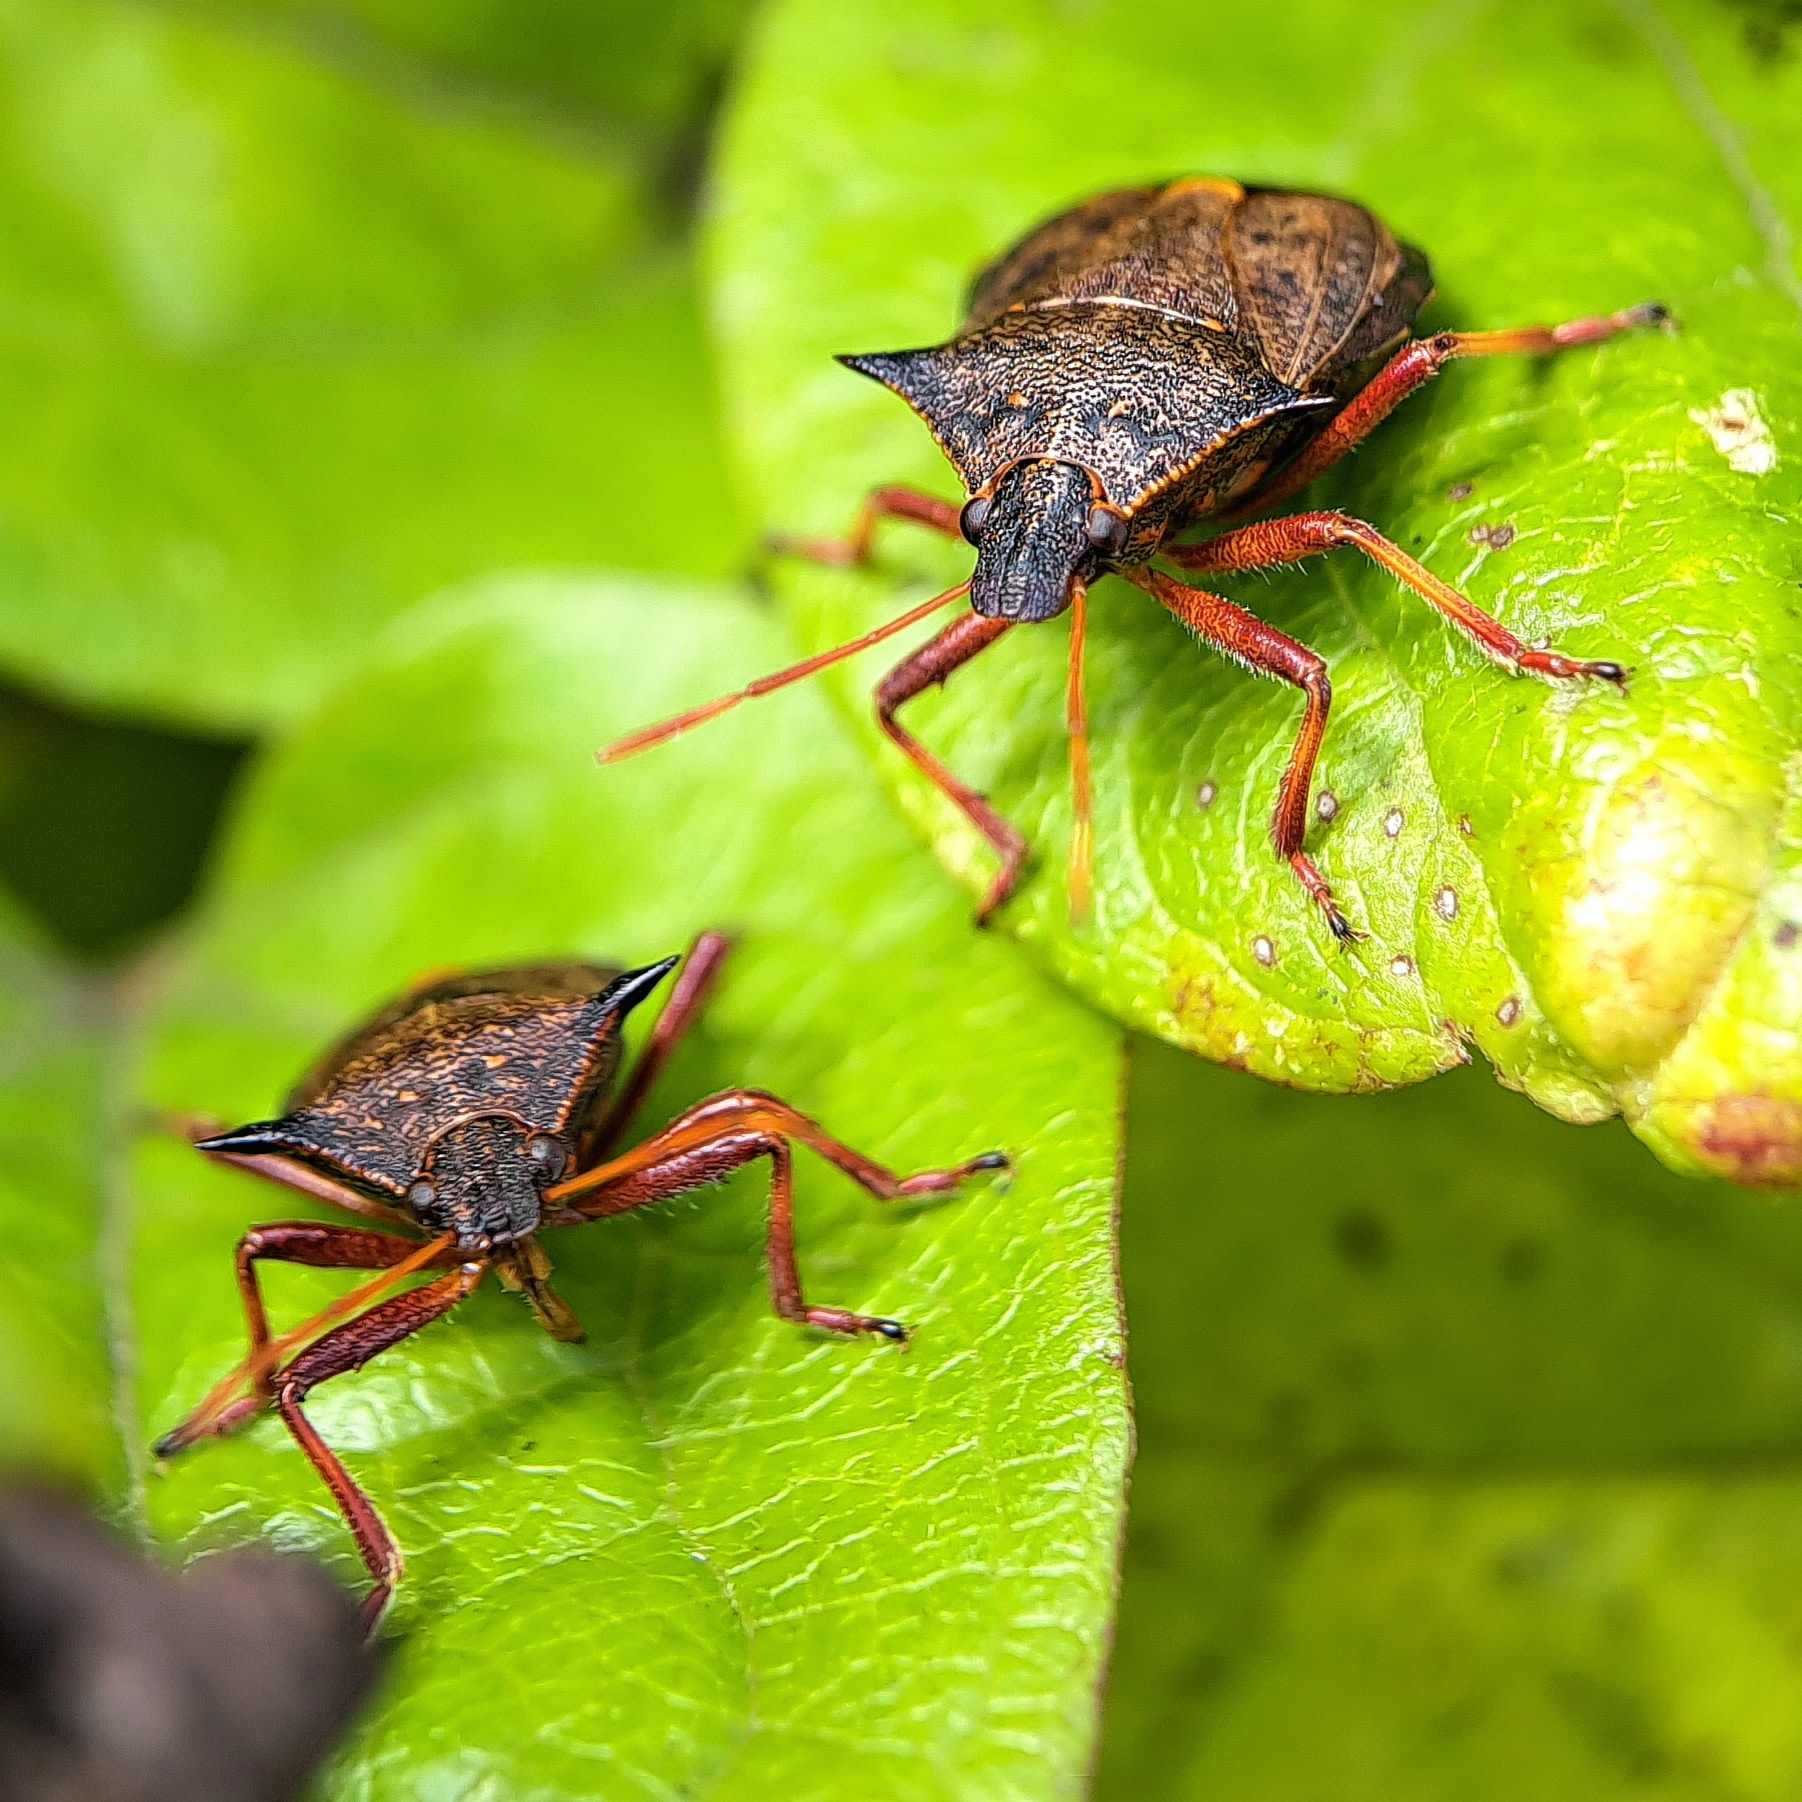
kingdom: Animalia
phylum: Arthropoda
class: Insecta
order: Hemiptera
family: Pentatomidae
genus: Picromerus
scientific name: Picromerus bidens
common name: Spiked shieldbug
